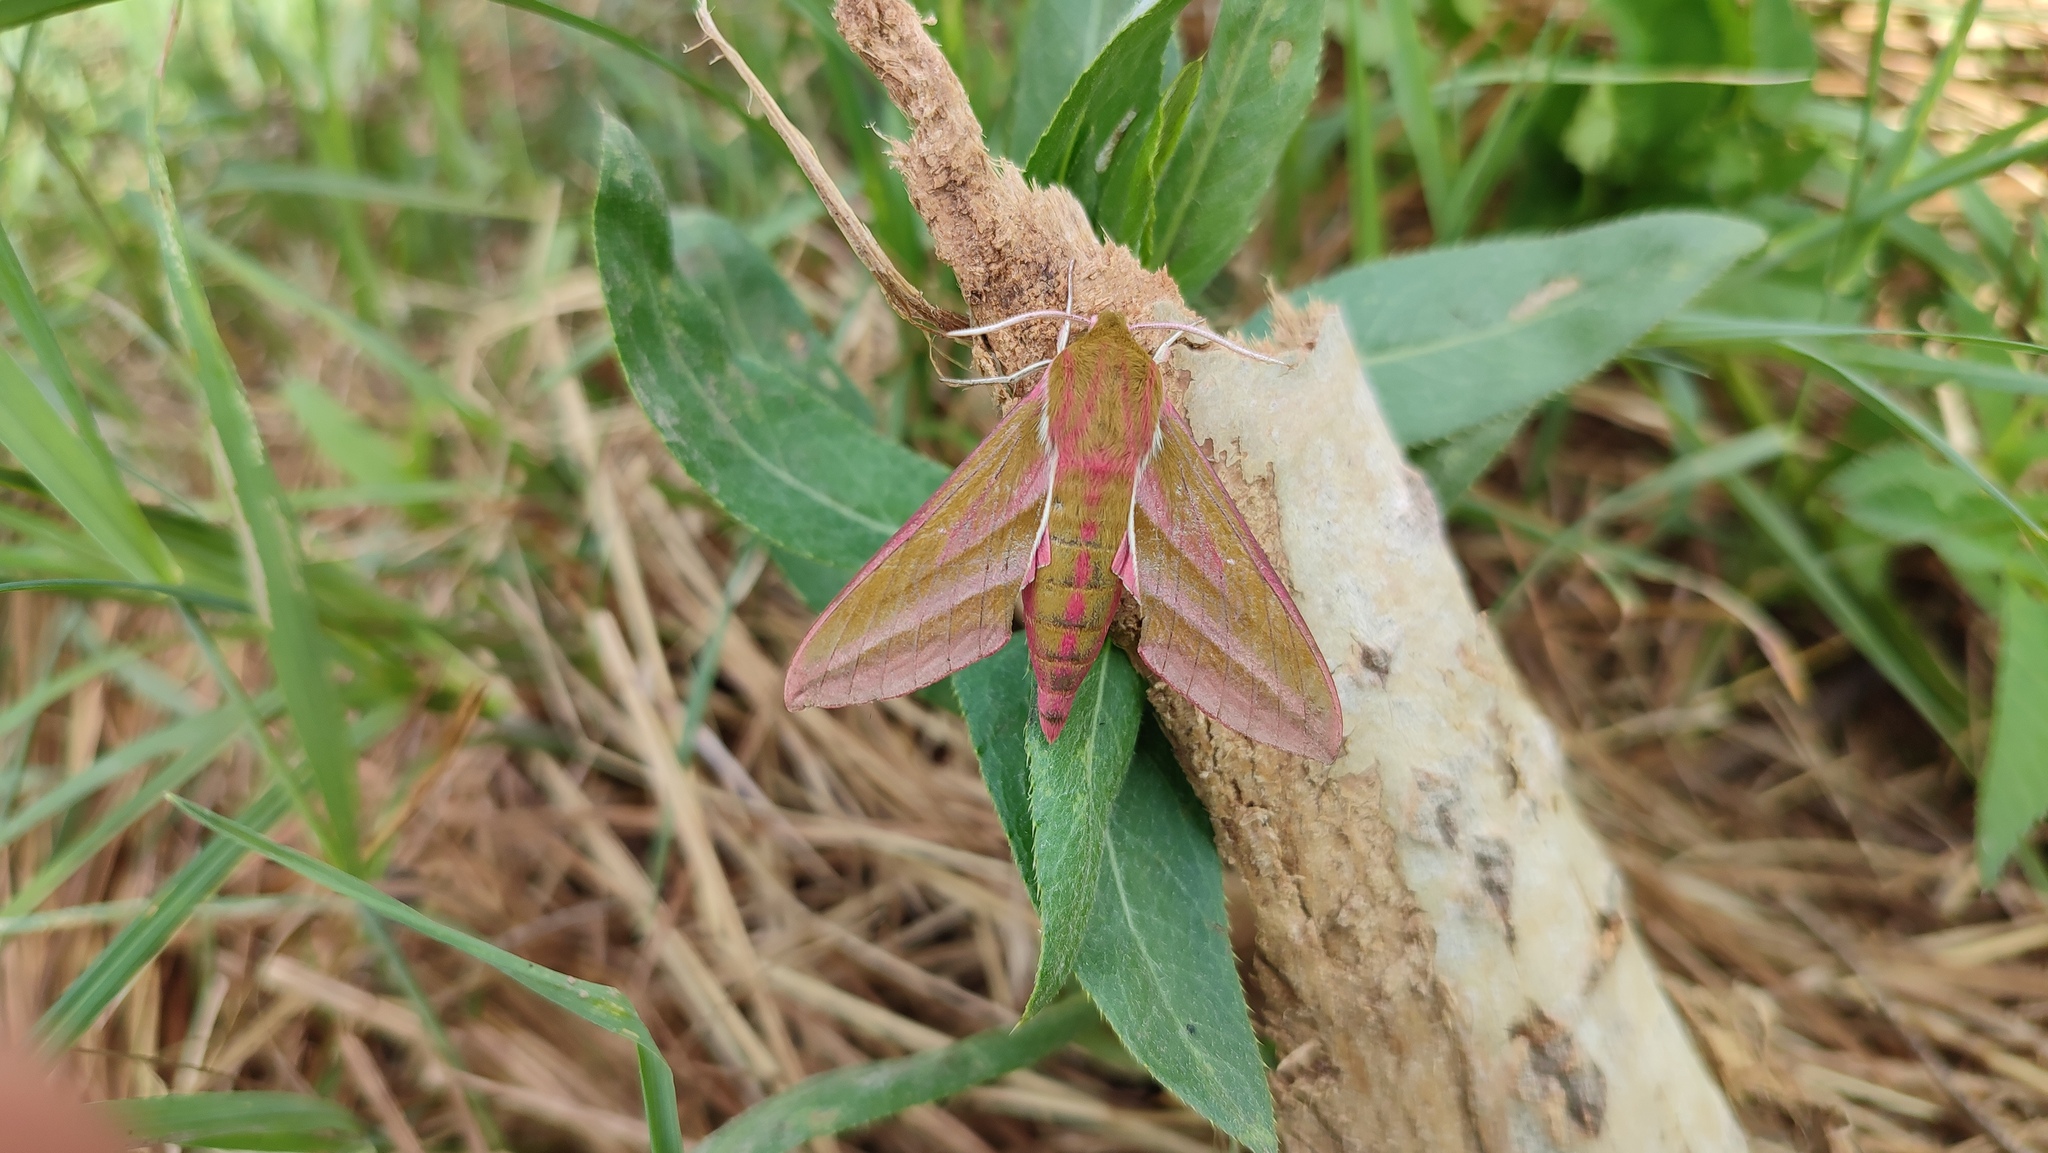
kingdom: Animalia
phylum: Arthropoda
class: Insecta
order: Lepidoptera
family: Sphingidae
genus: Deilephila
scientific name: Deilephila elpenor
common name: Elephant hawk-moth
